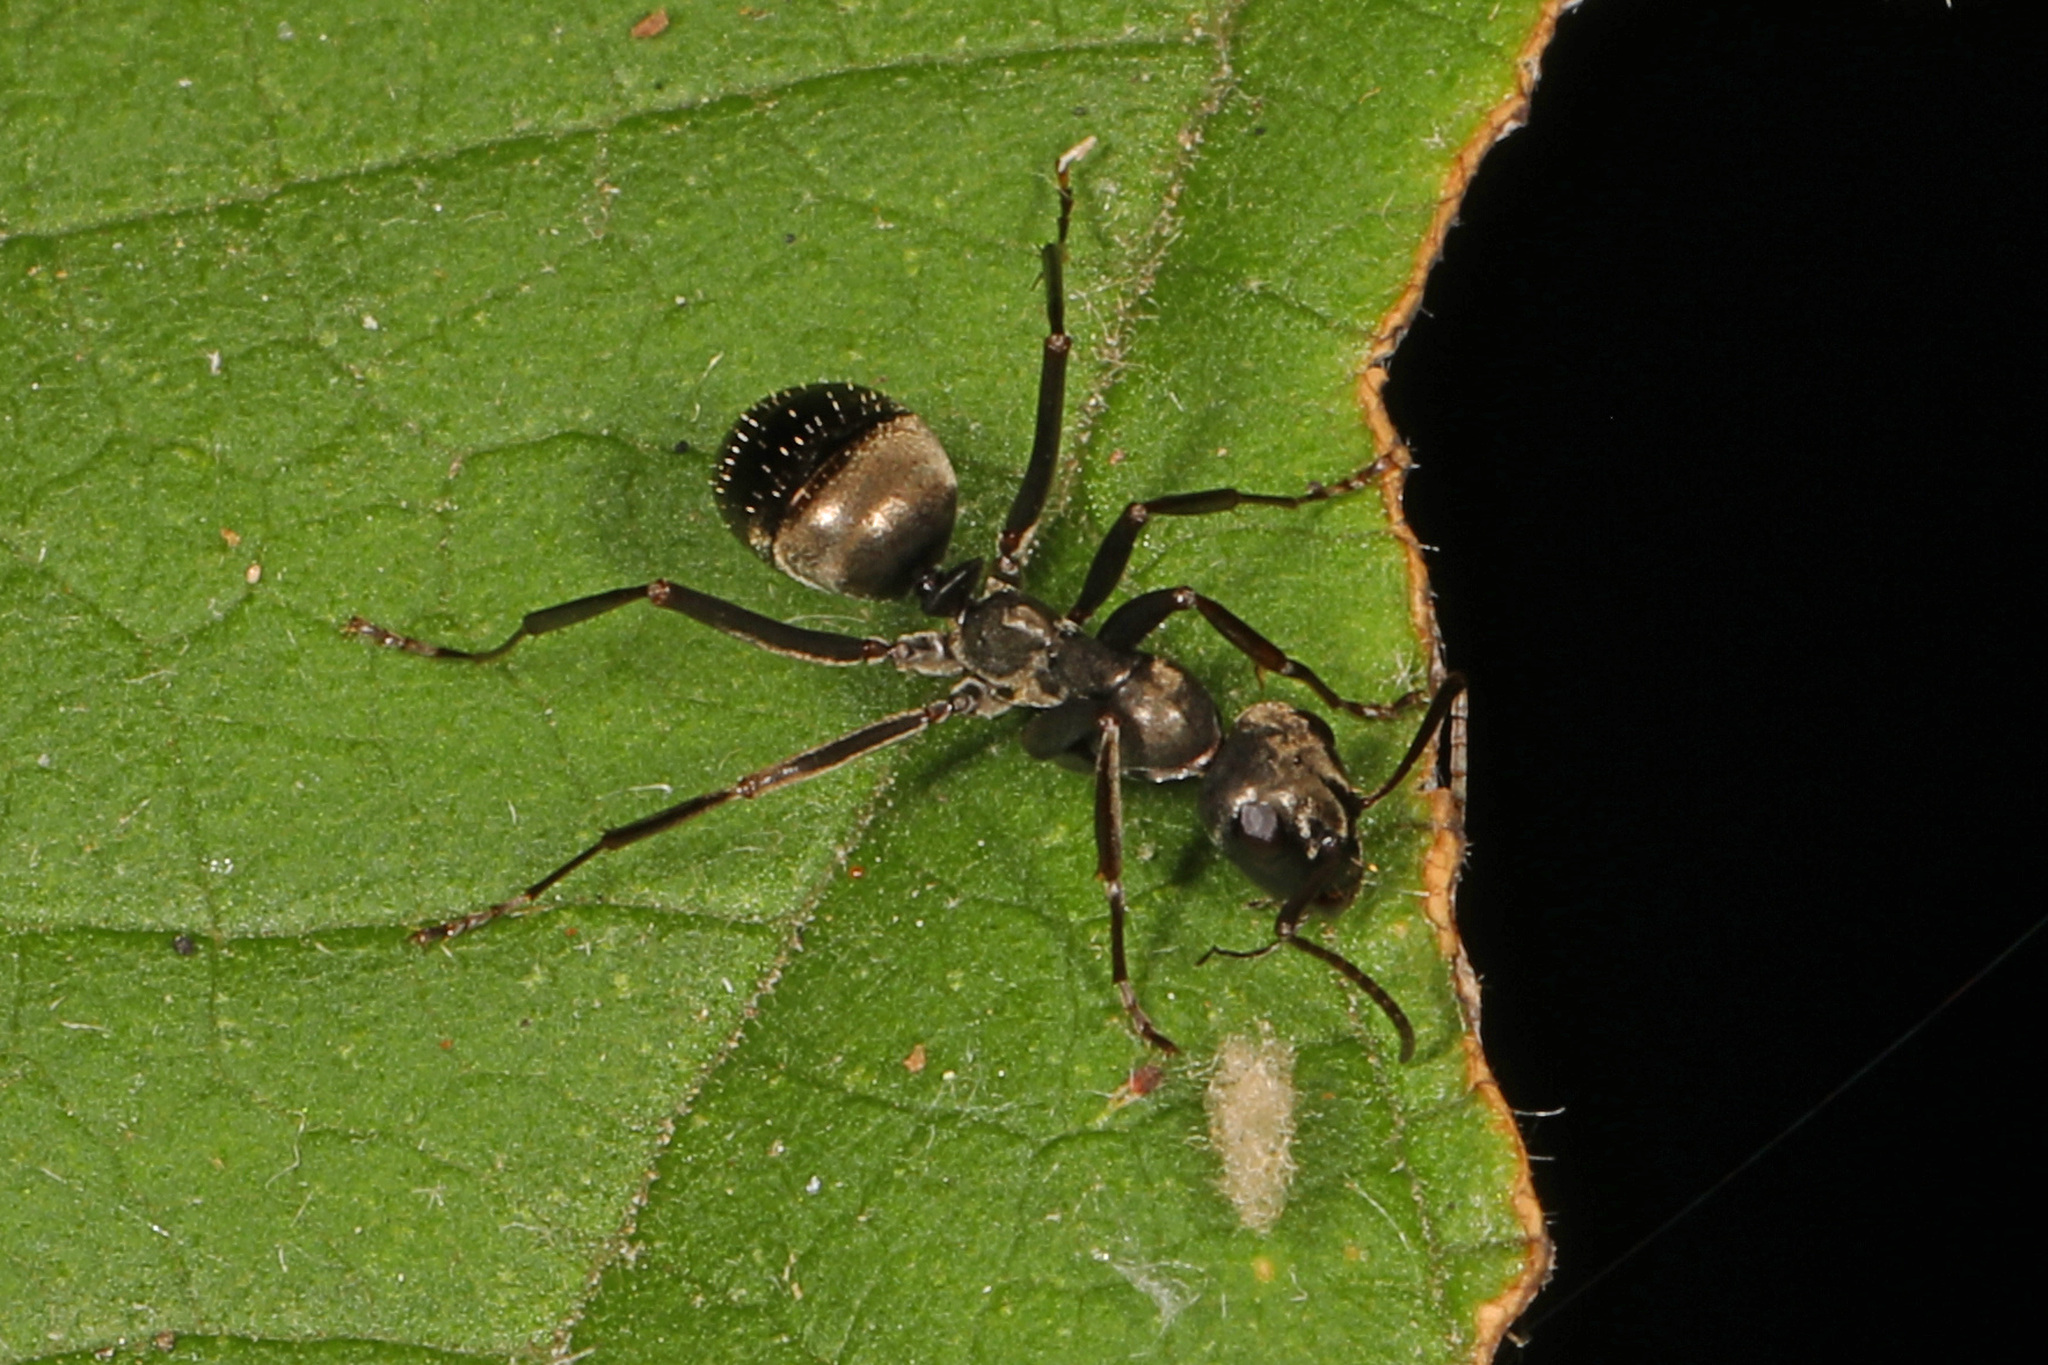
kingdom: Animalia
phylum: Arthropoda
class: Insecta
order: Hymenoptera
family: Formicidae
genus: Formica
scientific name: Formica
